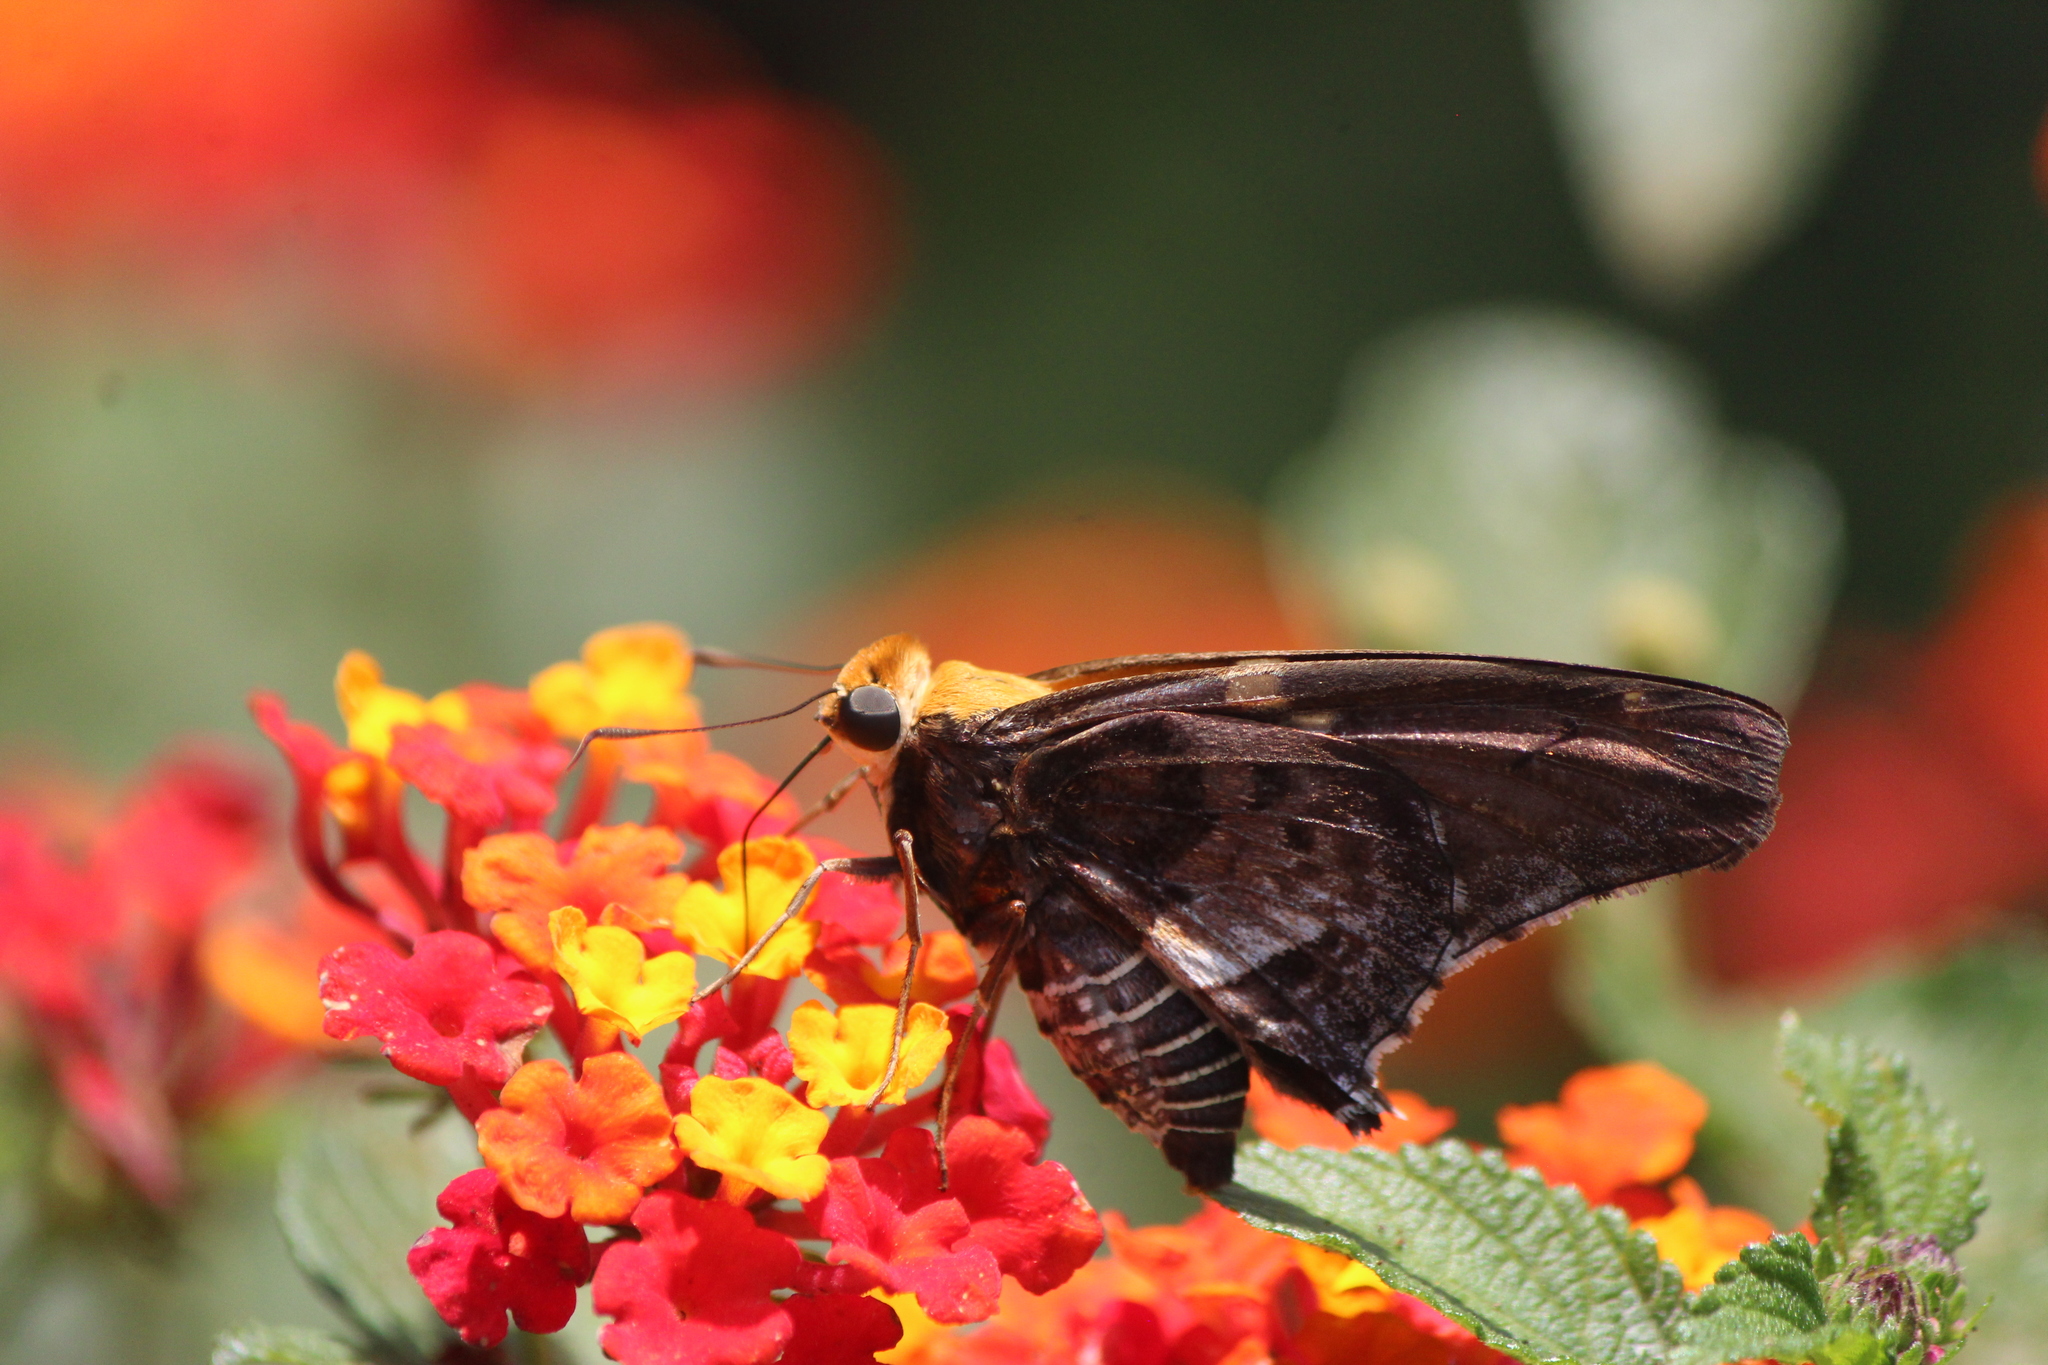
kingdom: Animalia
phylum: Arthropoda
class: Insecta
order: Lepidoptera
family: Hesperiidae
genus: Proteides
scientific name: Proteides mercurius
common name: Mercurial skipper
